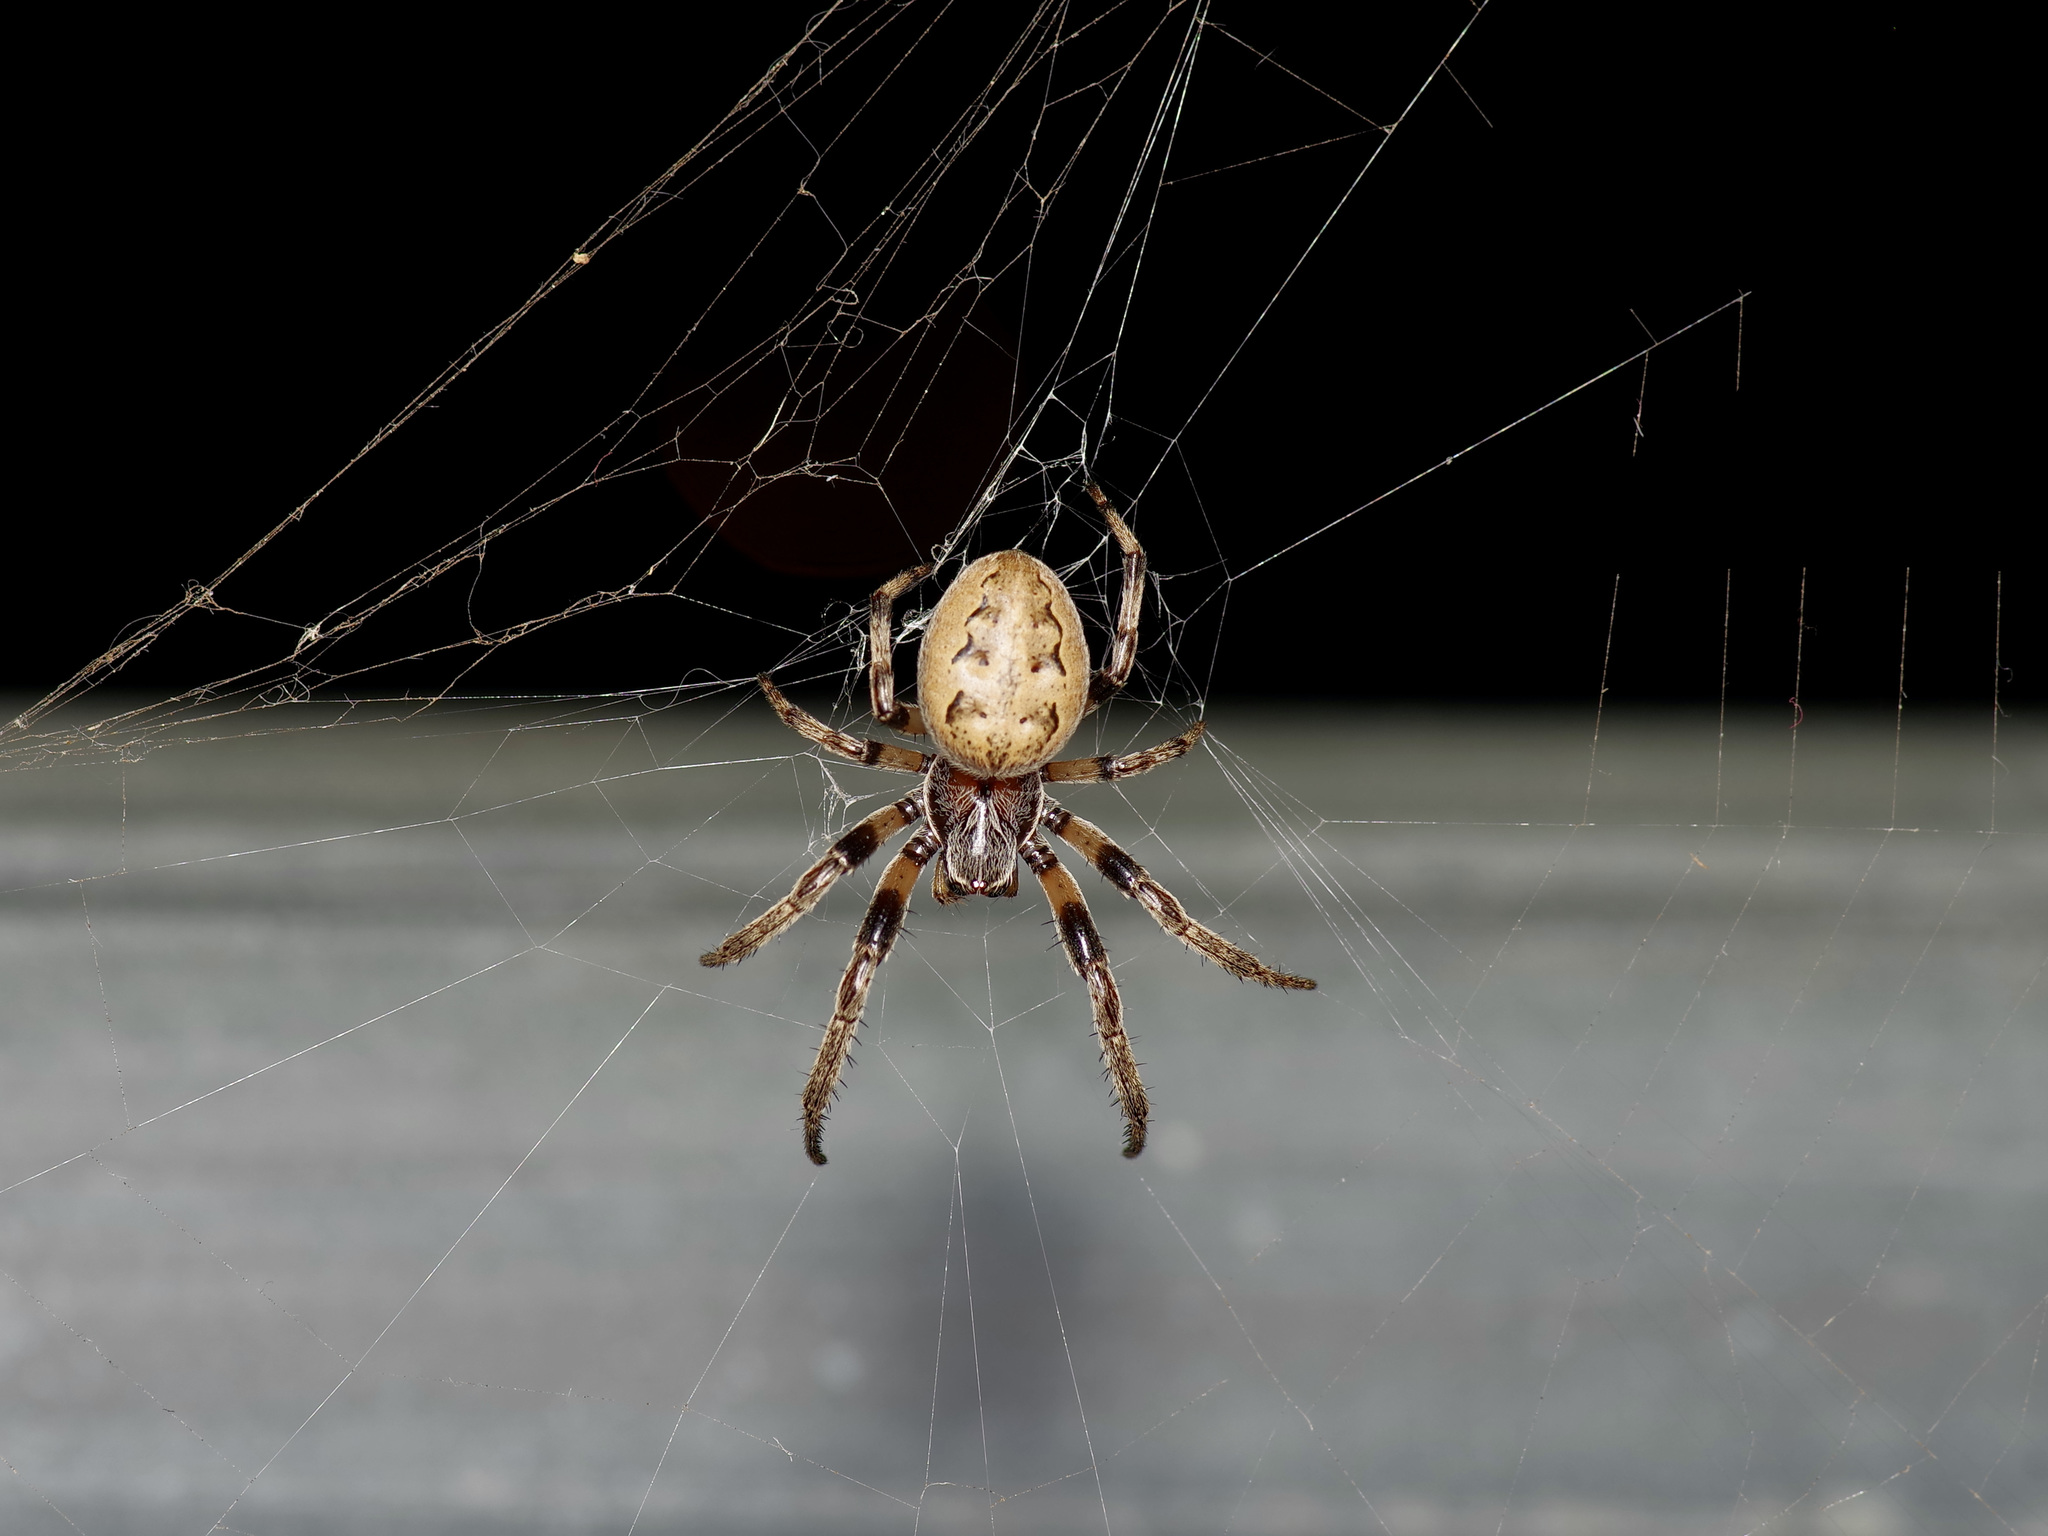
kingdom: Animalia
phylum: Arthropoda
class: Arachnida
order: Araneae
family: Araneidae
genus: Larinioides
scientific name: Larinioides cornutus
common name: Furrow orbweaver
